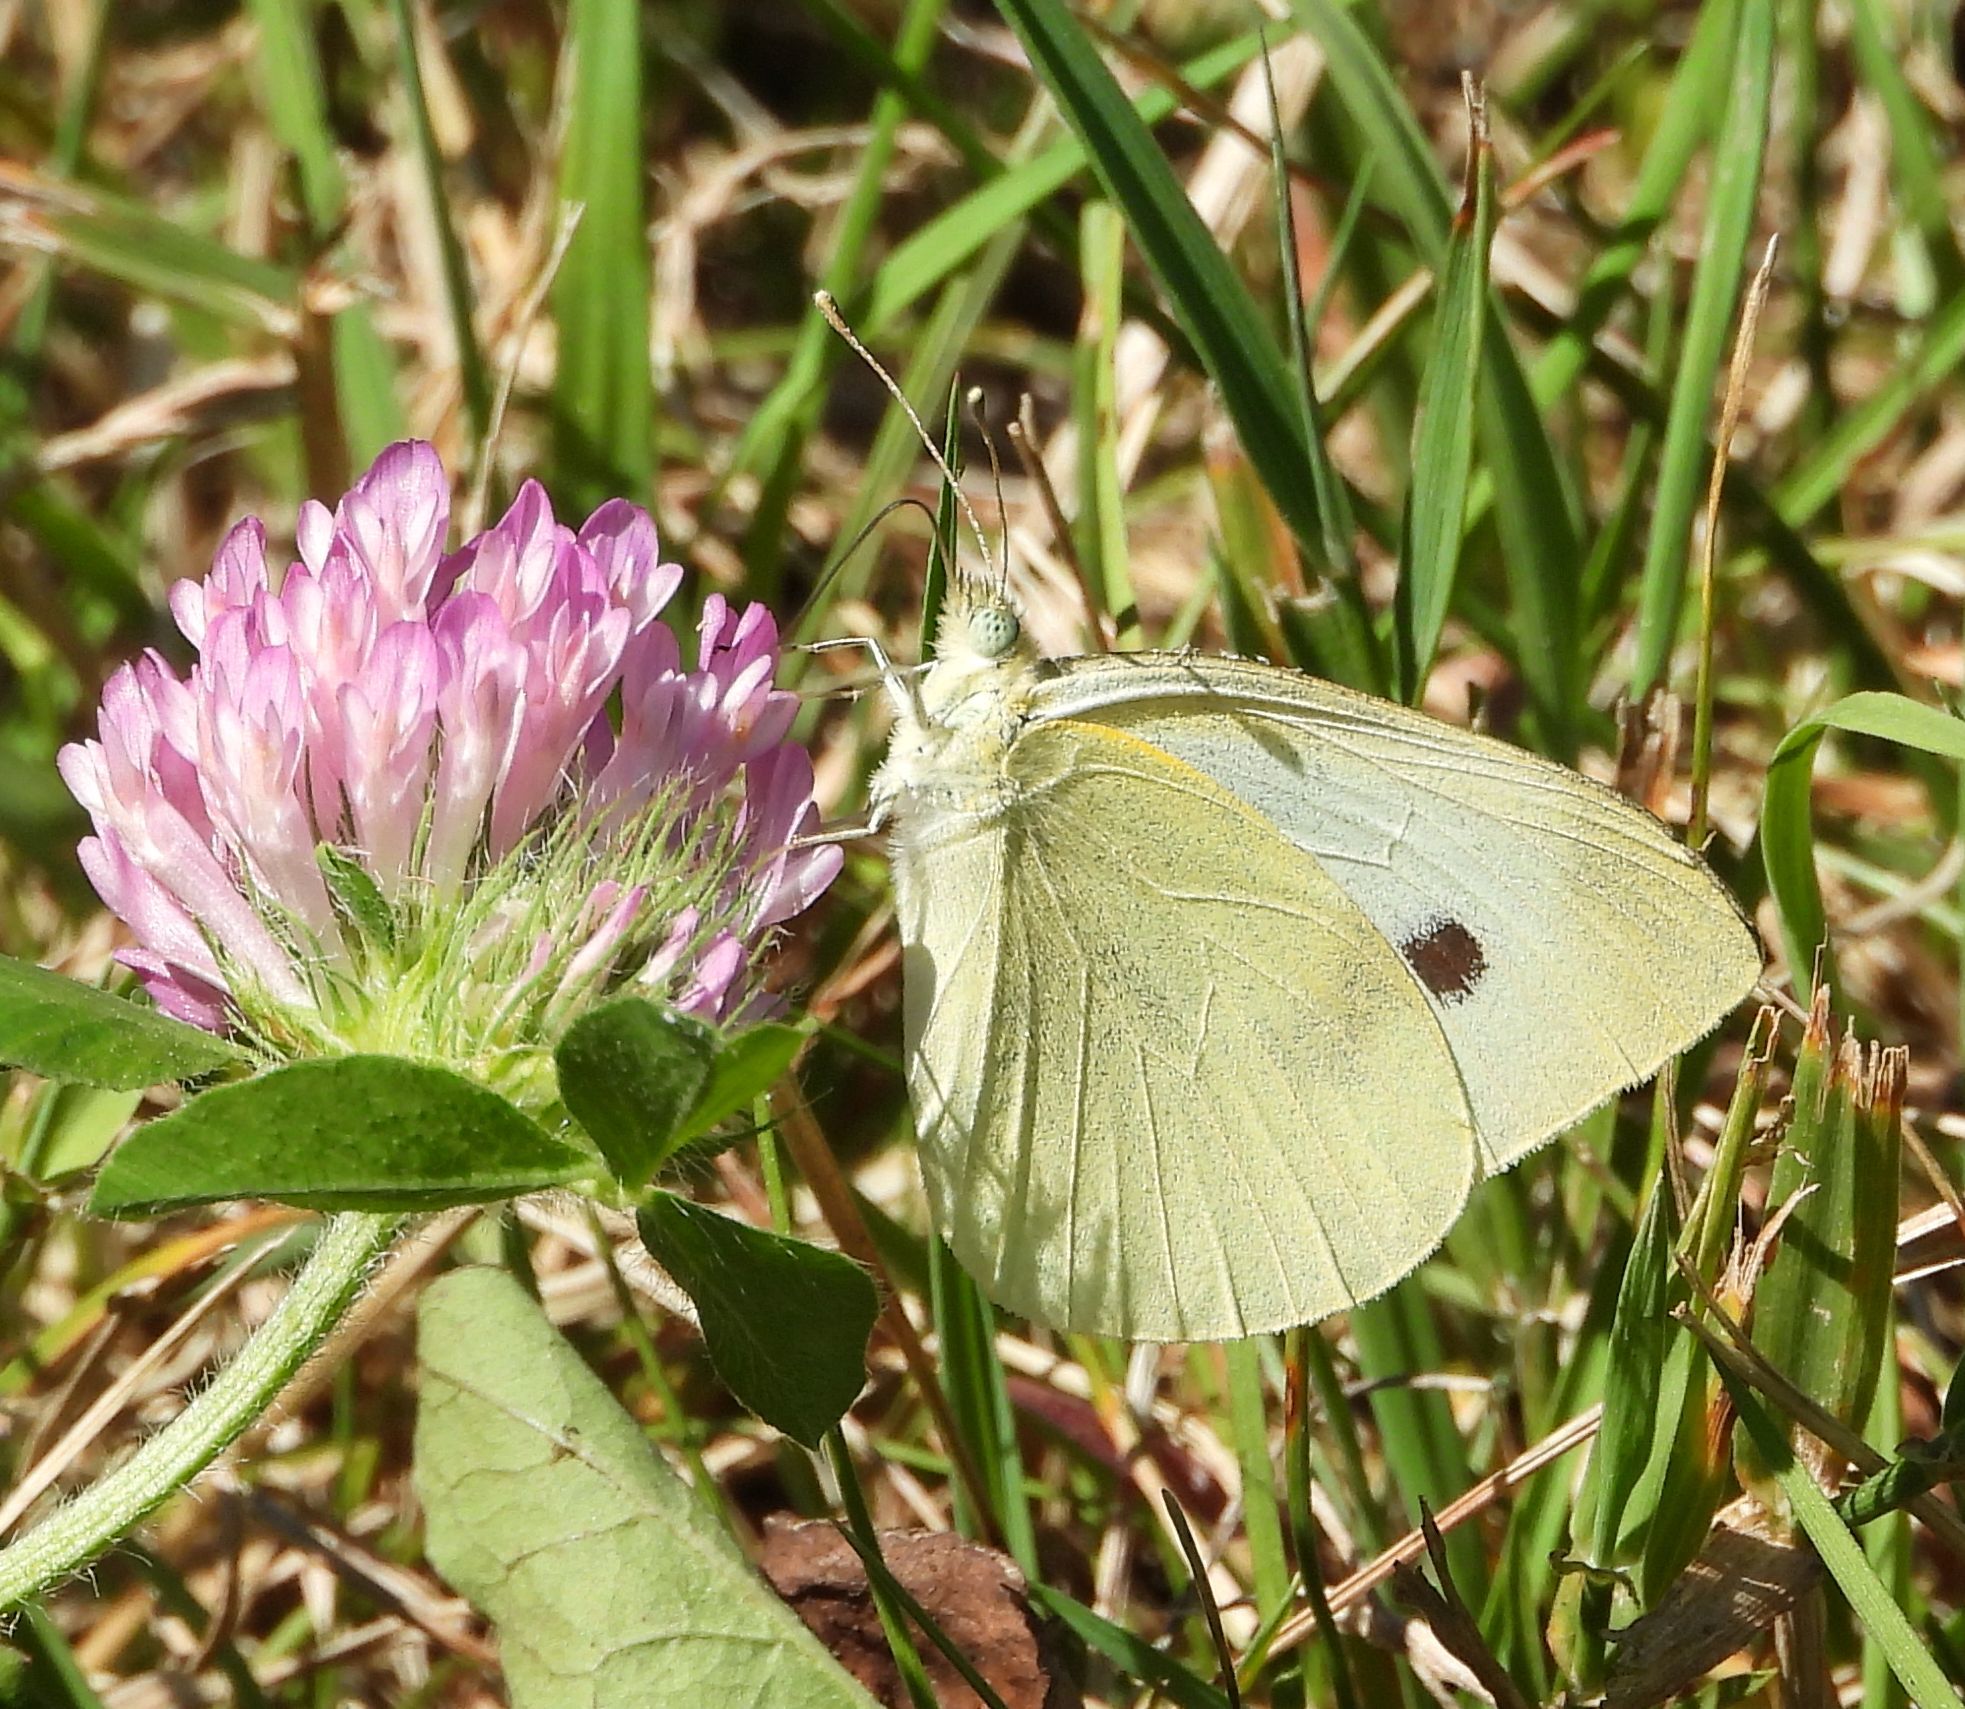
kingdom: Animalia
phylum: Arthropoda
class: Insecta
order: Lepidoptera
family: Pieridae
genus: Pieris
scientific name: Pieris rapae
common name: Small white
